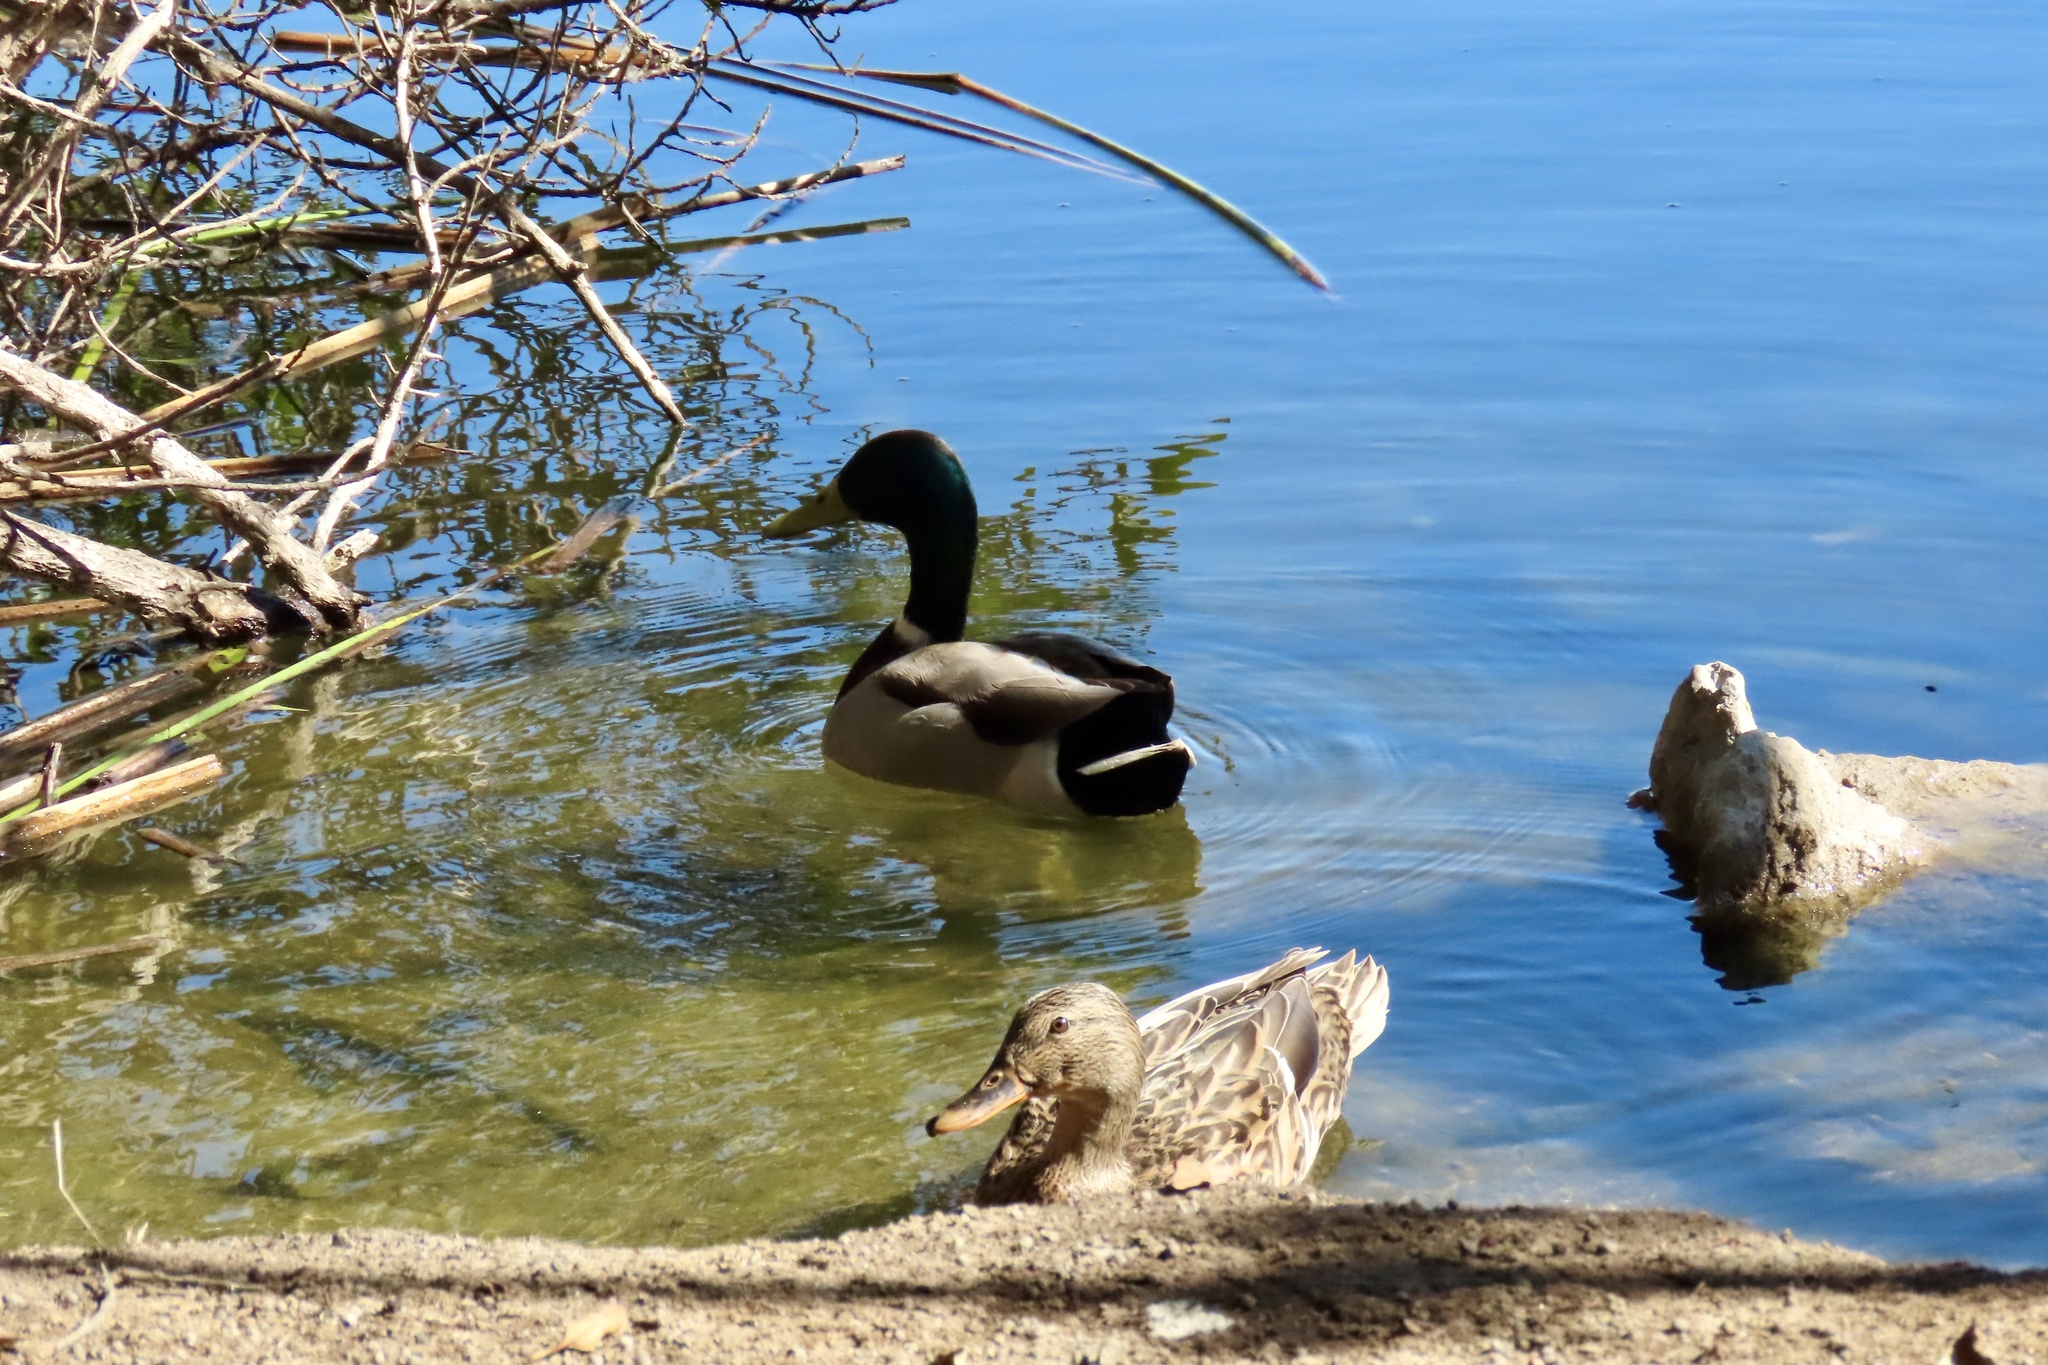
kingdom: Animalia
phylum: Chordata
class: Aves
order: Anseriformes
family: Anatidae
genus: Anas
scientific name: Anas platyrhynchos
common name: Mallard
